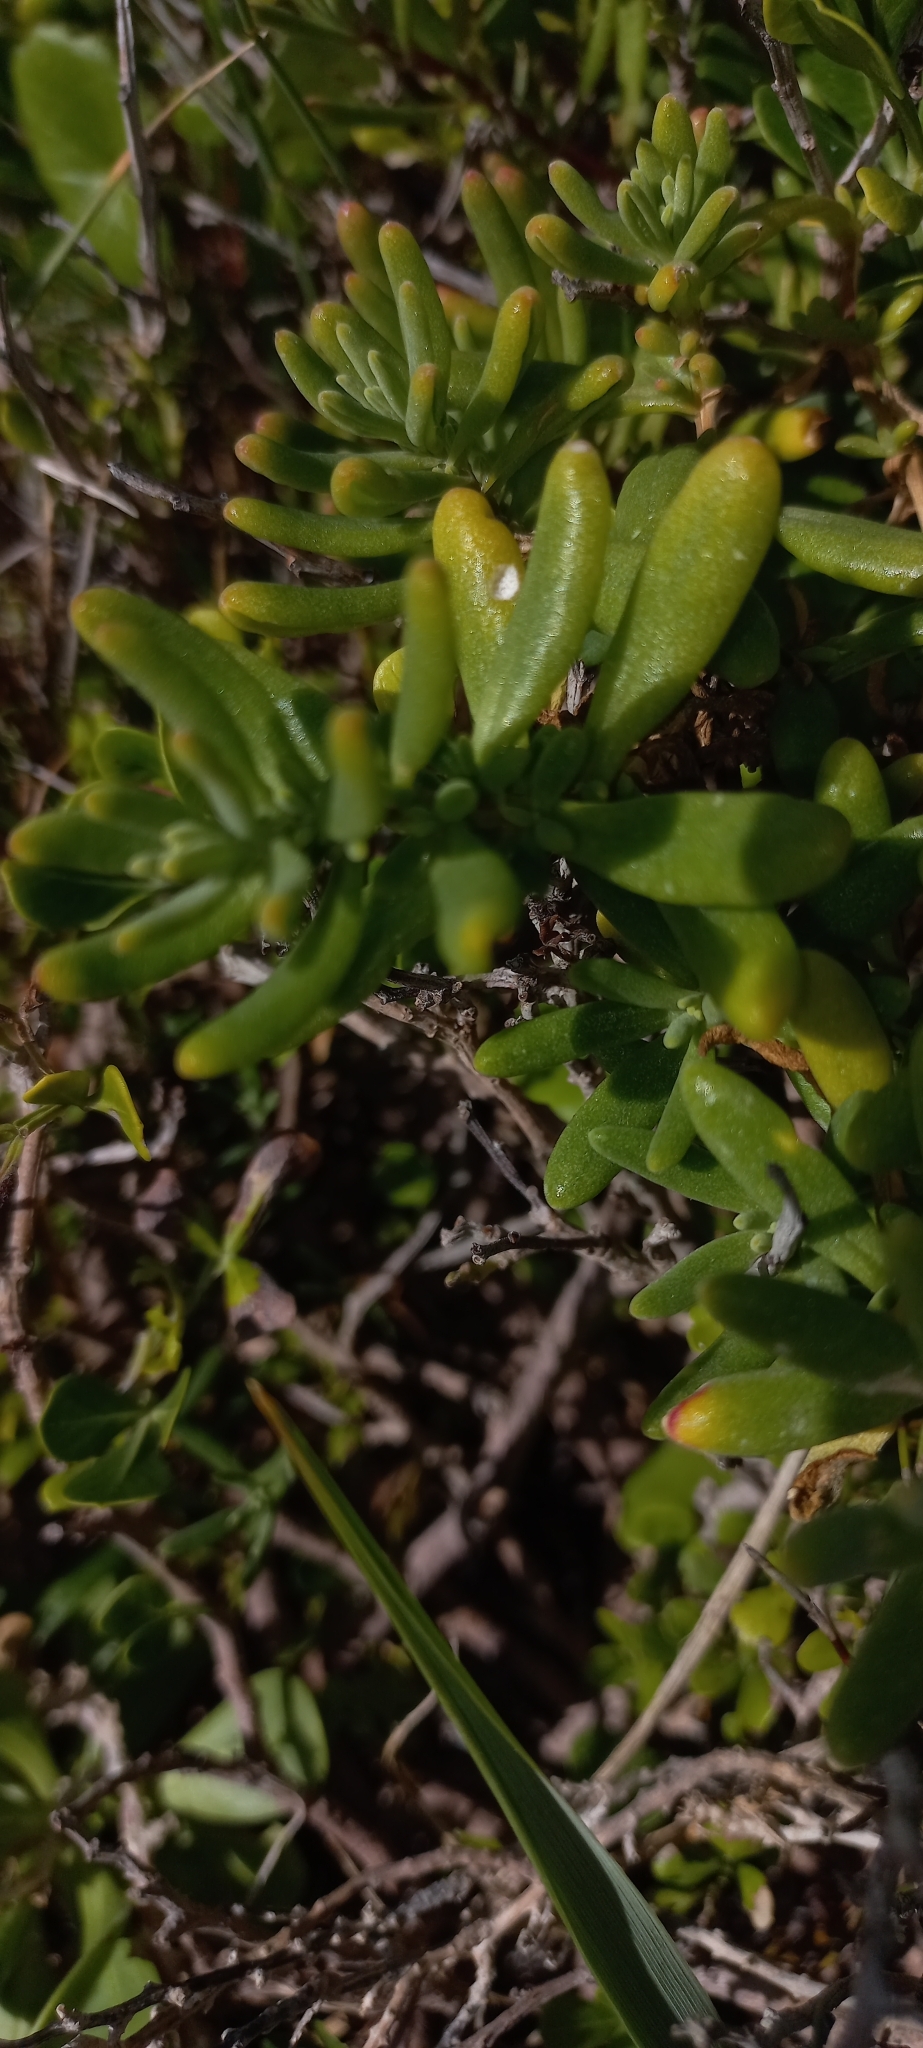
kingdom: Plantae
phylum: Tracheophyta
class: Magnoliopsida
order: Caryophyllales
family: Aizoaceae
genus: Tetragonia
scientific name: Tetragonia fruticosa
